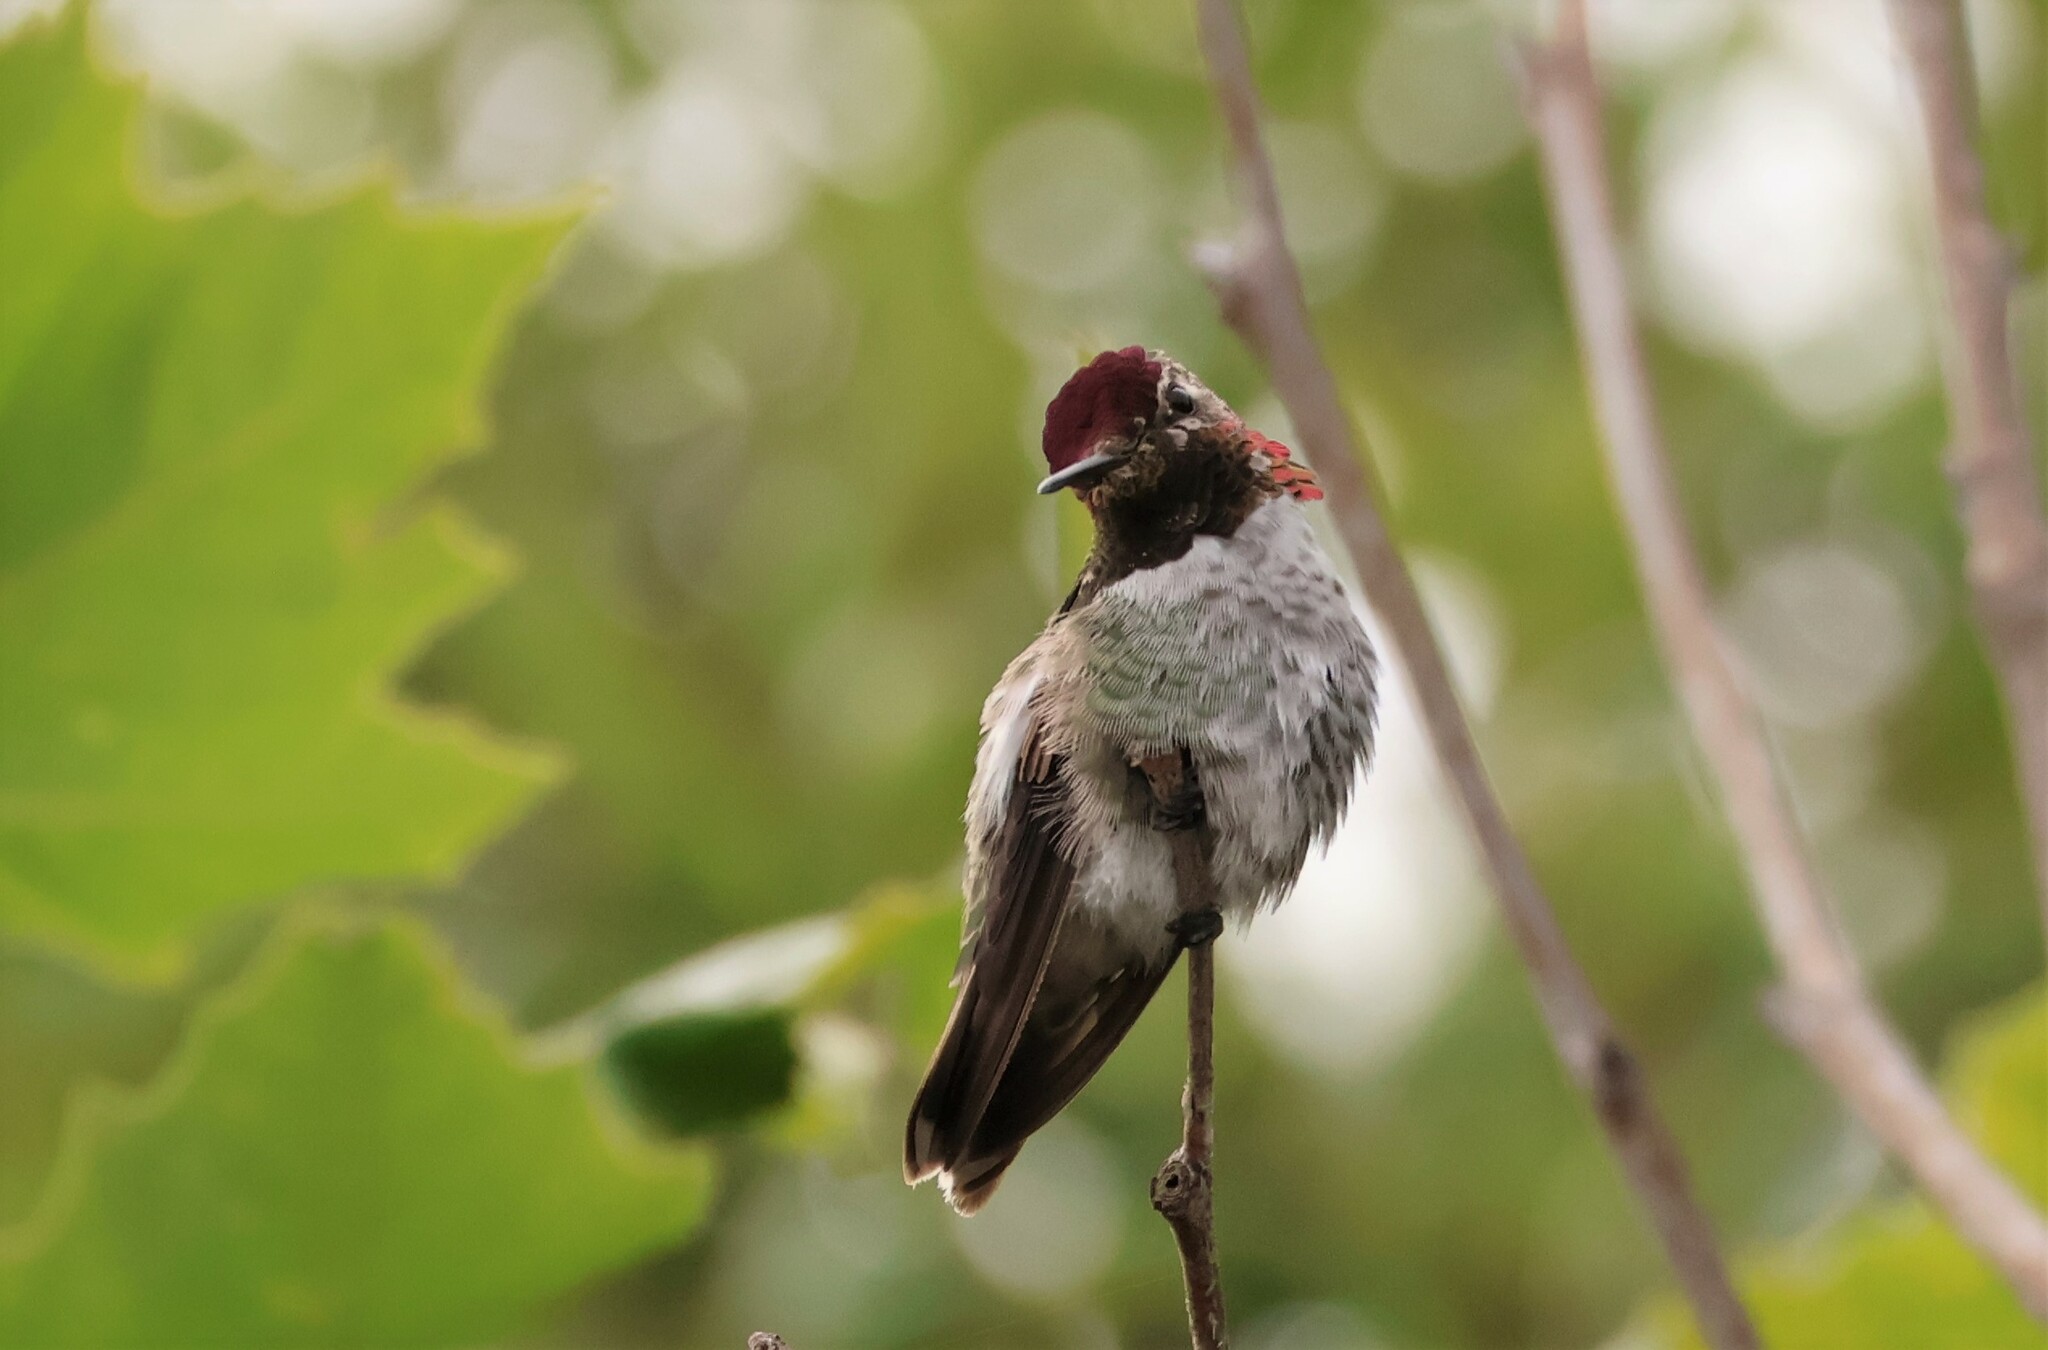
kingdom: Animalia
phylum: Chordata
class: Aves
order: Apodiformes
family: Trochilidae
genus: Calypte
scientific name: Calypte anna
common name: Anna's hummingbird
